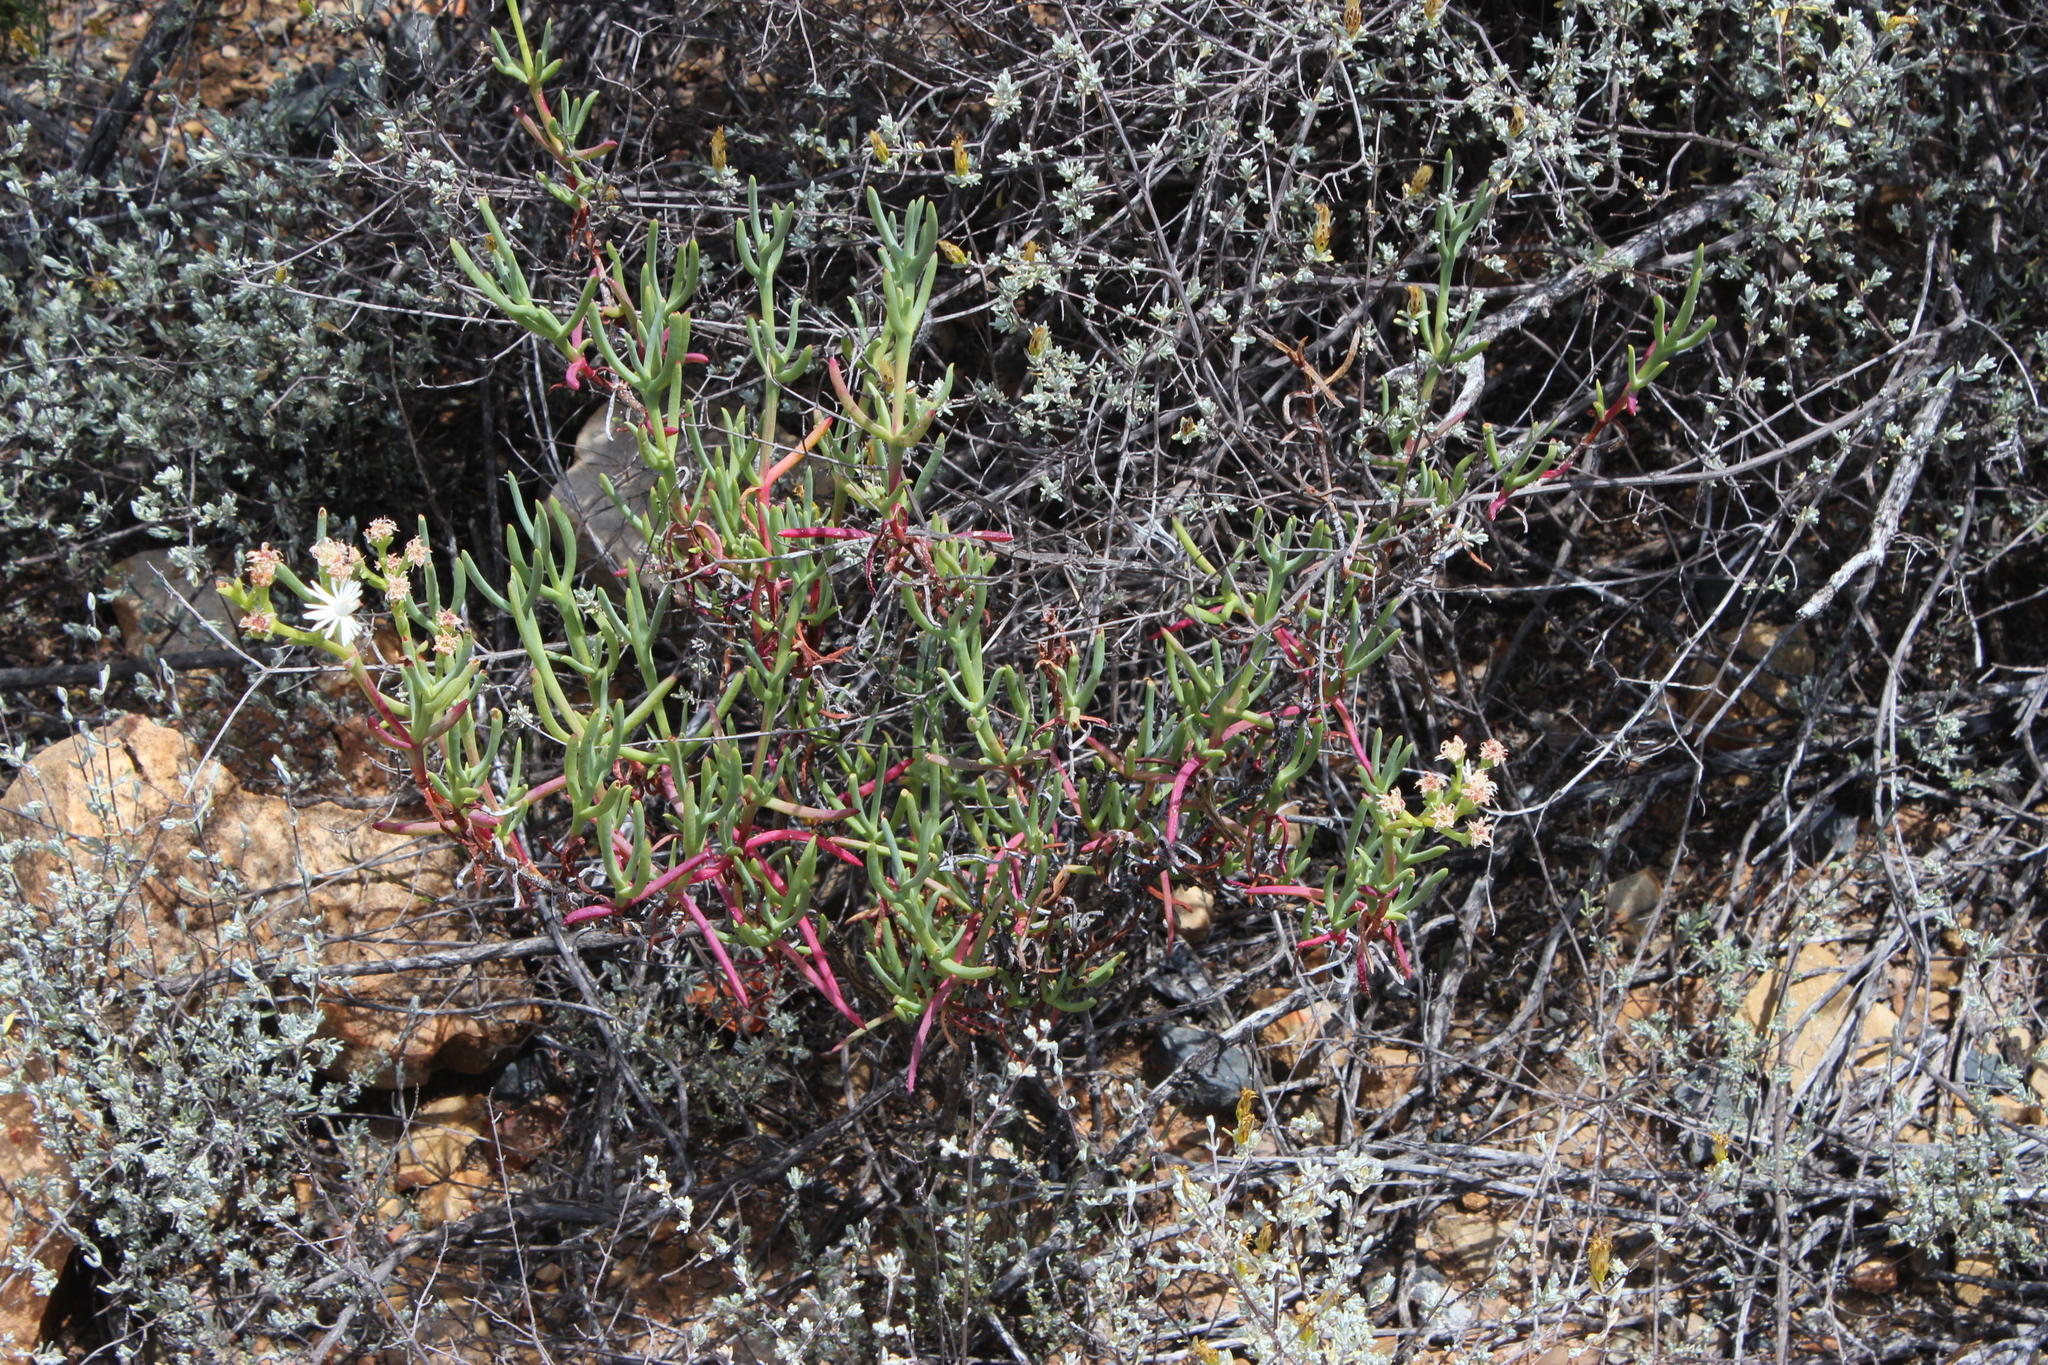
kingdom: Plantae
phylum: Tracheophyta
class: Magnoliopsida
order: Caryophyllales
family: Aizoaceae
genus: Ruschia
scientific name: Ruschia multiflora
